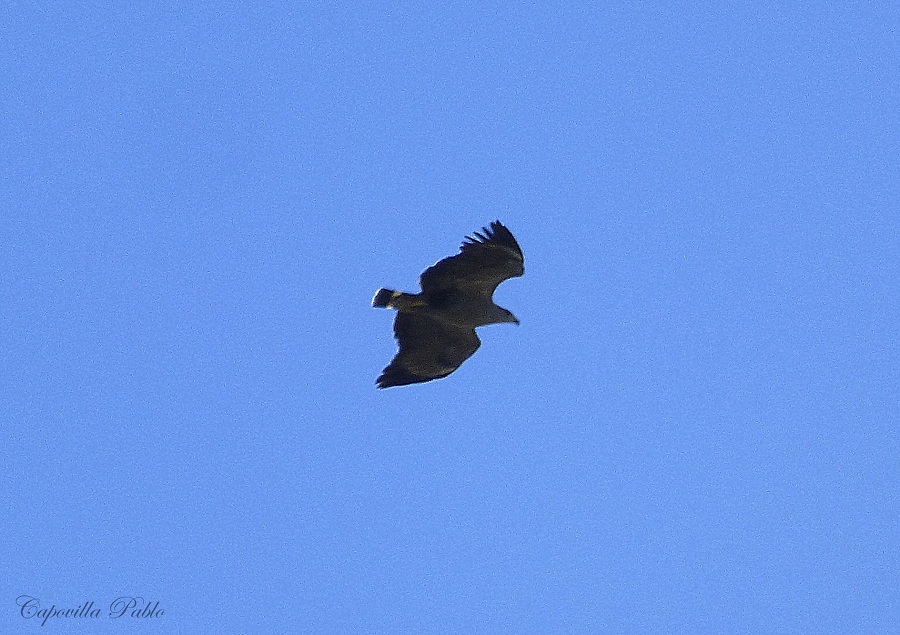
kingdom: Animalia
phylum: Chordata
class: Aves
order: Accipitriformes
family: Accipitridae
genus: Harpyhaliaetus
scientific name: Harpyhaliaetus coronatus
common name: Crowned solitary eagle
